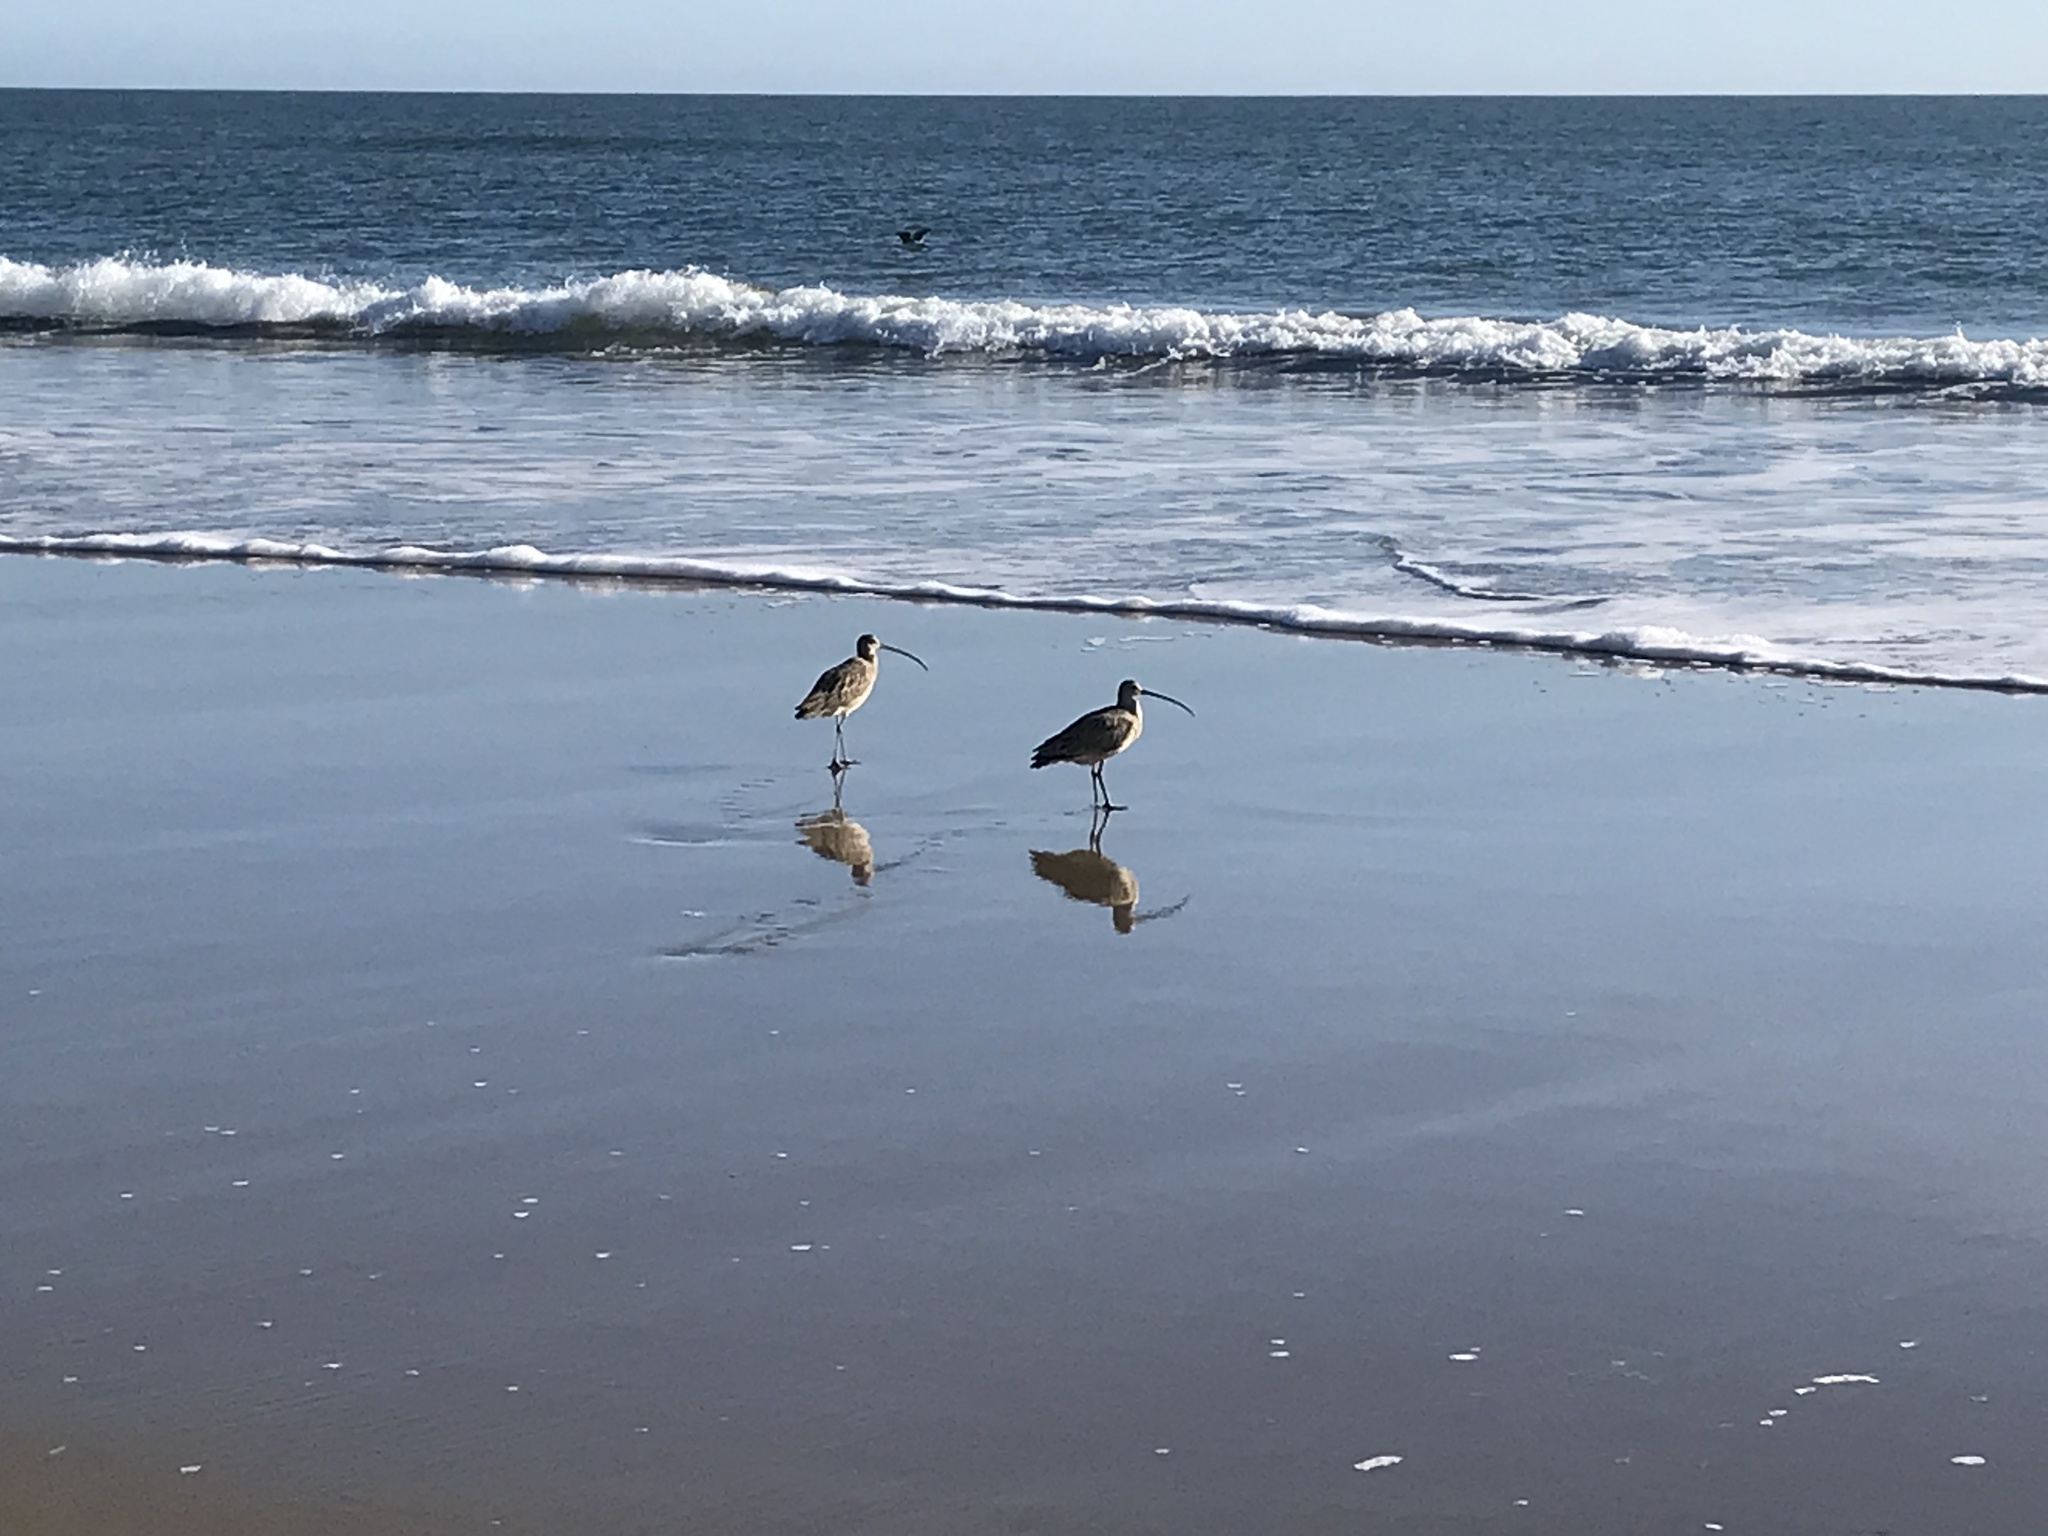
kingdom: Animalia
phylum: Chordata
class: Aves
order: Charadriiformes
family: Scolopacidae
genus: Numenius
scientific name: Numenius americanus
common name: Long-billed curlew
